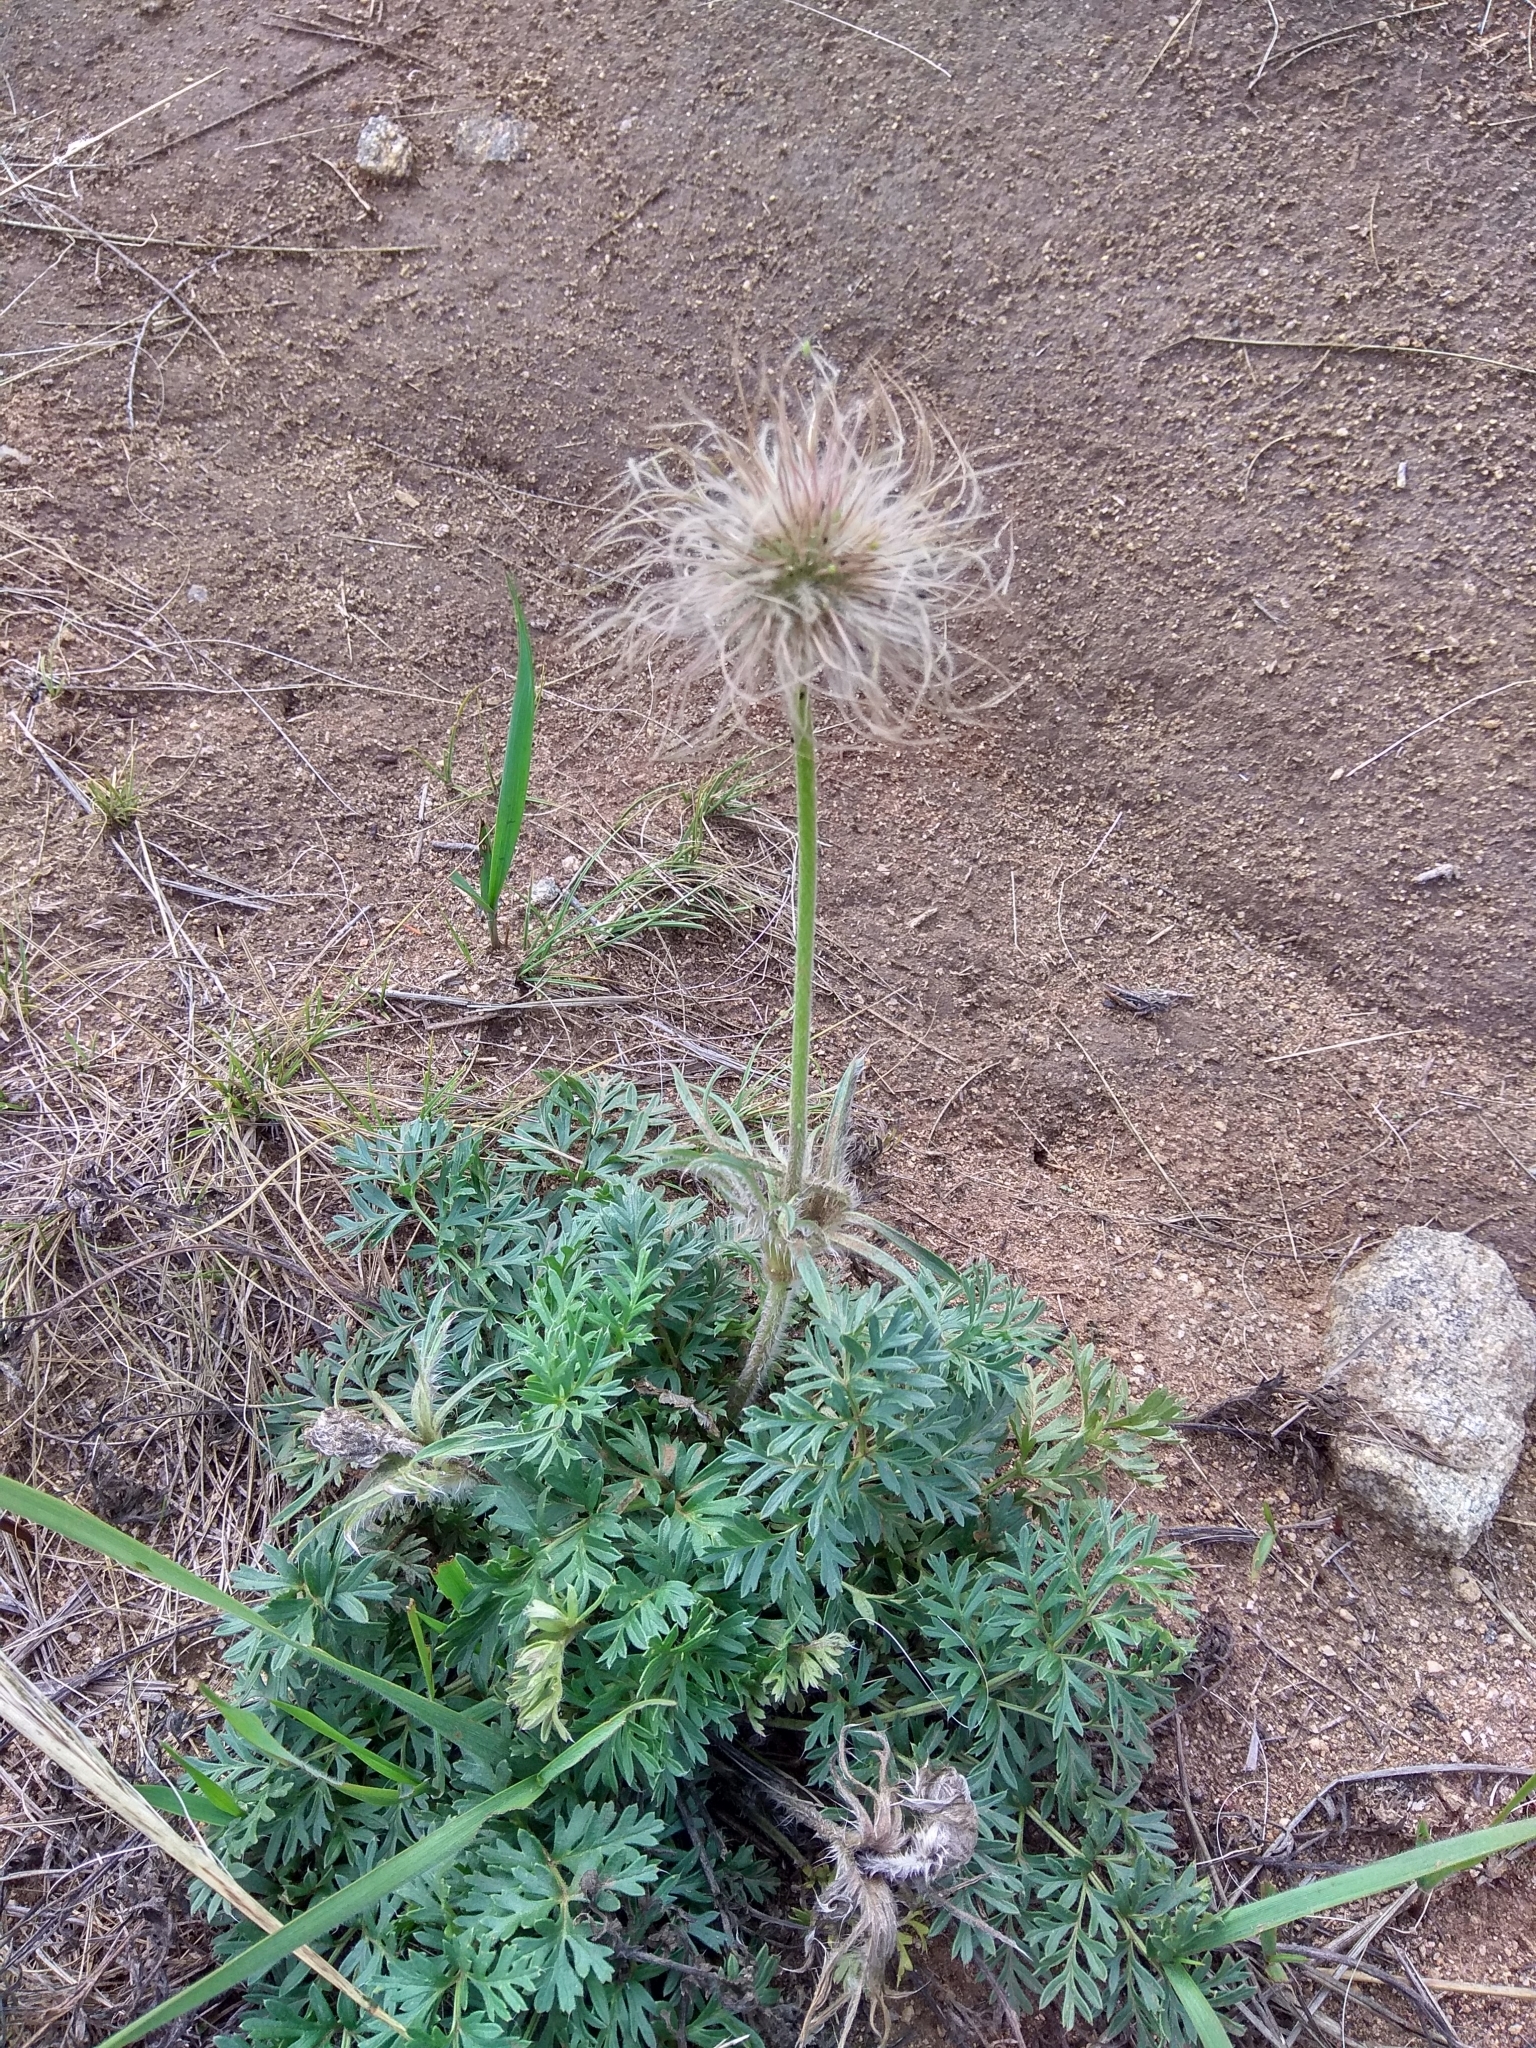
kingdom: Plantae
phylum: Tracheophyta
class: Magnoliopsida
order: Ranunculales
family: Ranunculaceae
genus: Pulsatilla
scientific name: Pulsatilla turczaninovii
